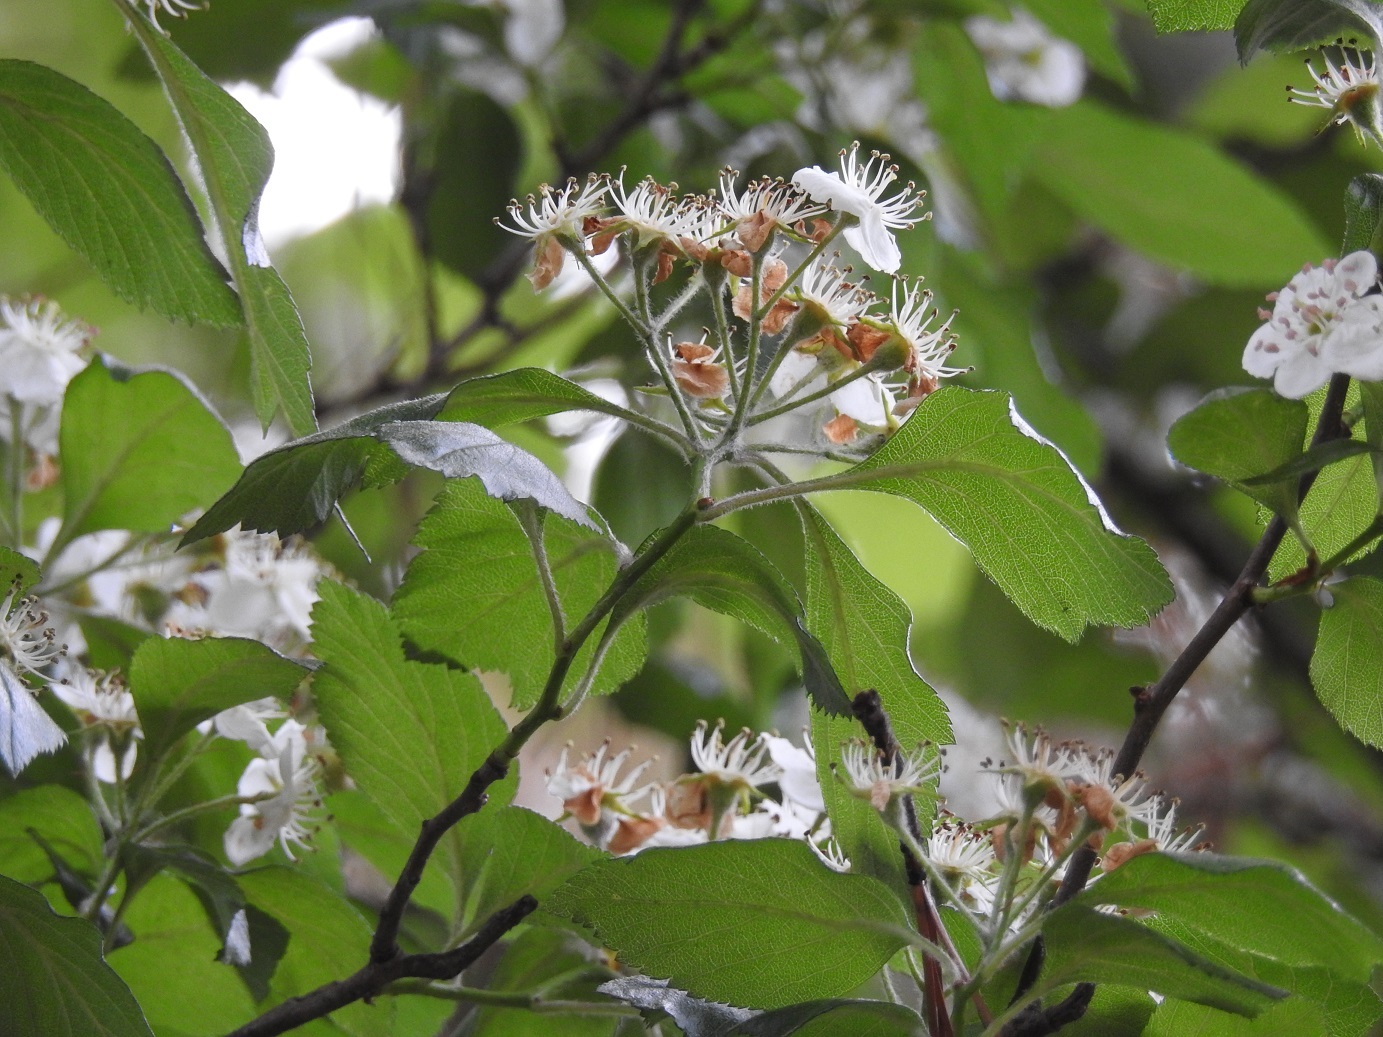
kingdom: Plantae
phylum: Tracheophyta
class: Magnoliopsida
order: Rosales
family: Rosaceae
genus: Crataegus
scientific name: Crataegus mexicana
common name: Mexican hawthorn
